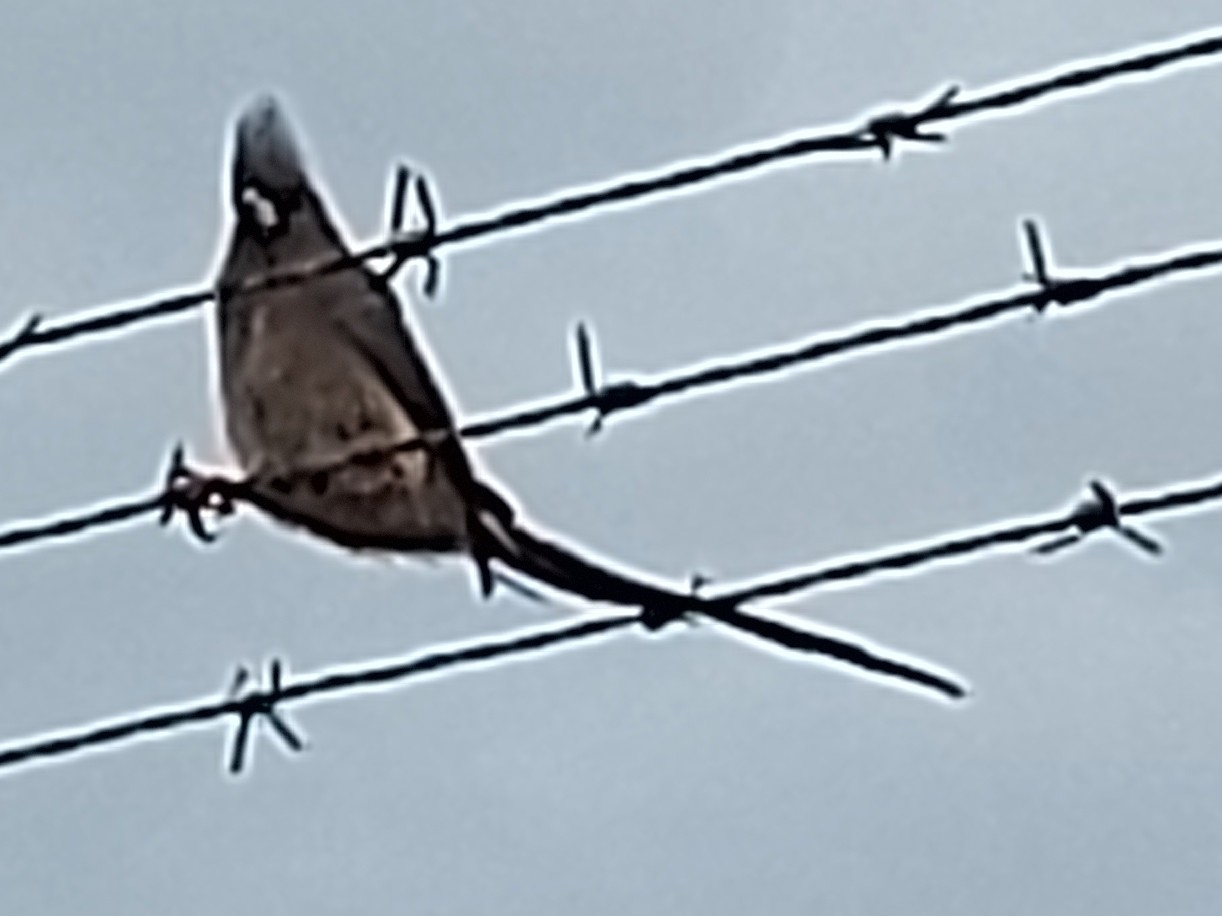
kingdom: Animalia
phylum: Chordata
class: Aves
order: Coliiformes
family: Coliidae
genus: Colius
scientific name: Colius colius
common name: White-backed mousebird
